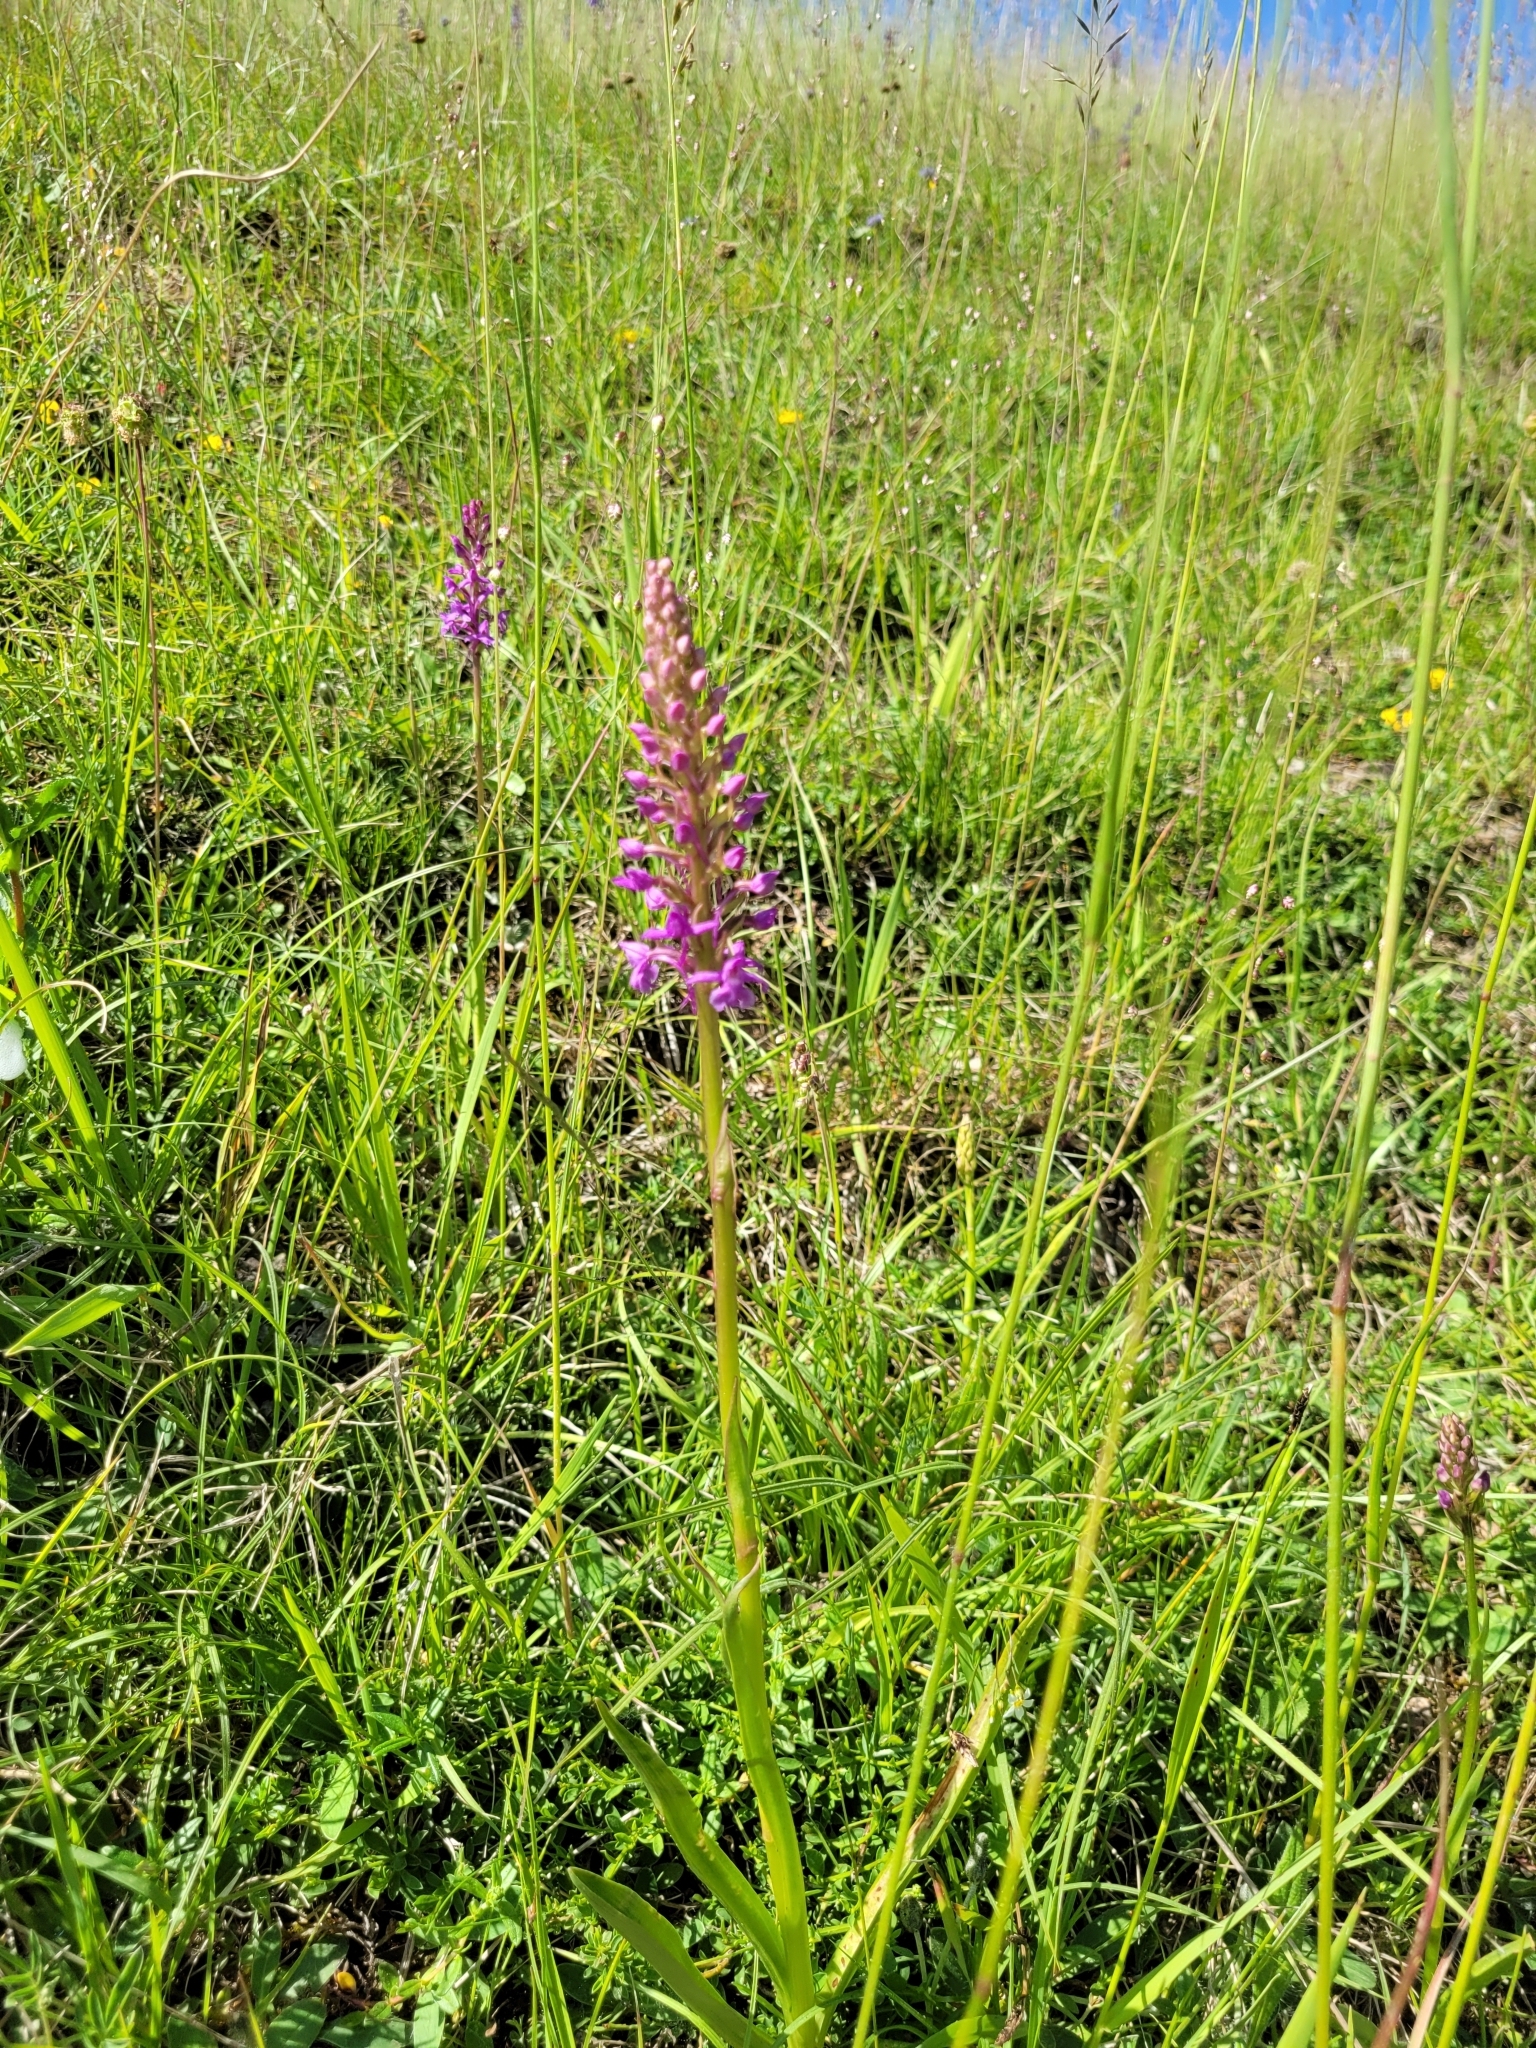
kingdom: Plantae
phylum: Tracheophyta
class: Liliopsida
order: Asparagales
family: Orchidaceae
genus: Gymnadenia
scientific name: Gymnadenia conopsea
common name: Fragrant orchid
